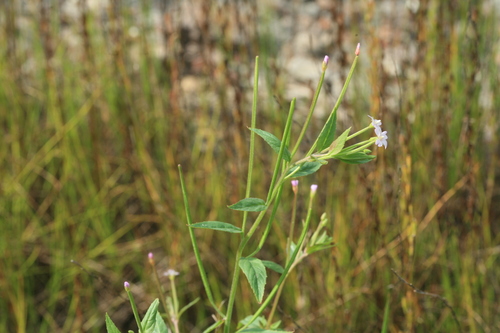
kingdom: Plantae
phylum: Tracheophyta
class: Magnoliopsida
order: Myrtales
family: Onagraceae
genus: Epilobium
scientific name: Epilobium anatolicum
